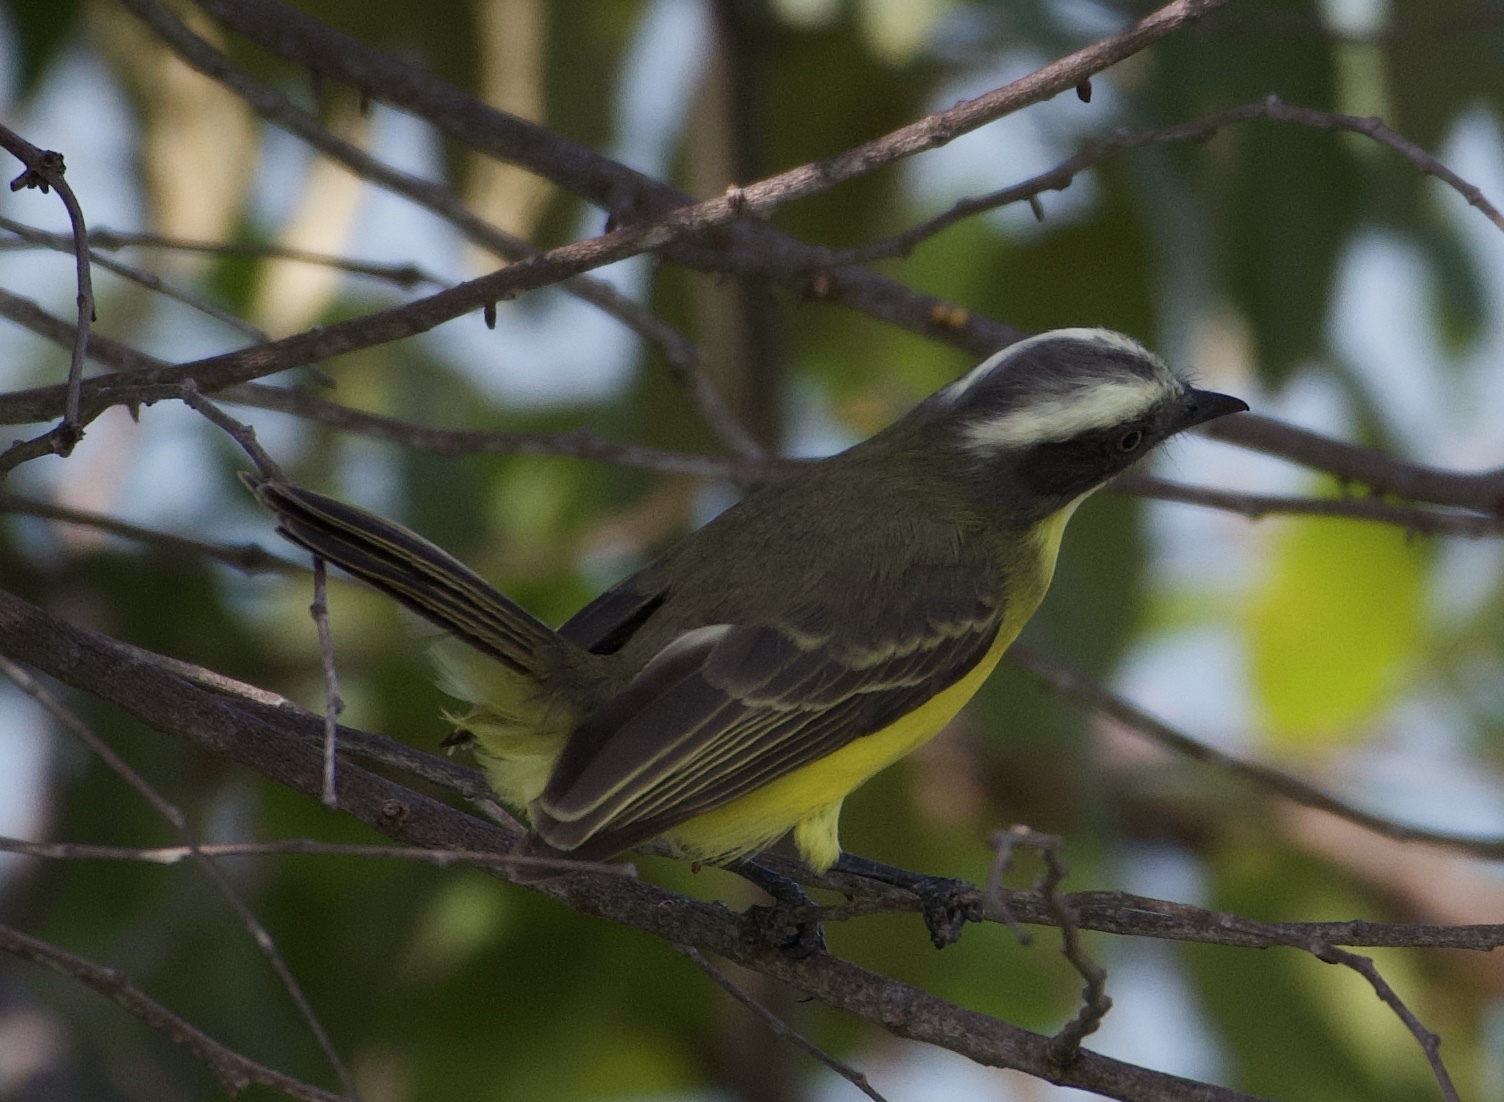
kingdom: Animalia
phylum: Chordata
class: Aves
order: Passeriformes
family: Tyrannidae
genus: Myiozetetes
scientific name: Myiozetetes similis
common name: Social flycatcher
